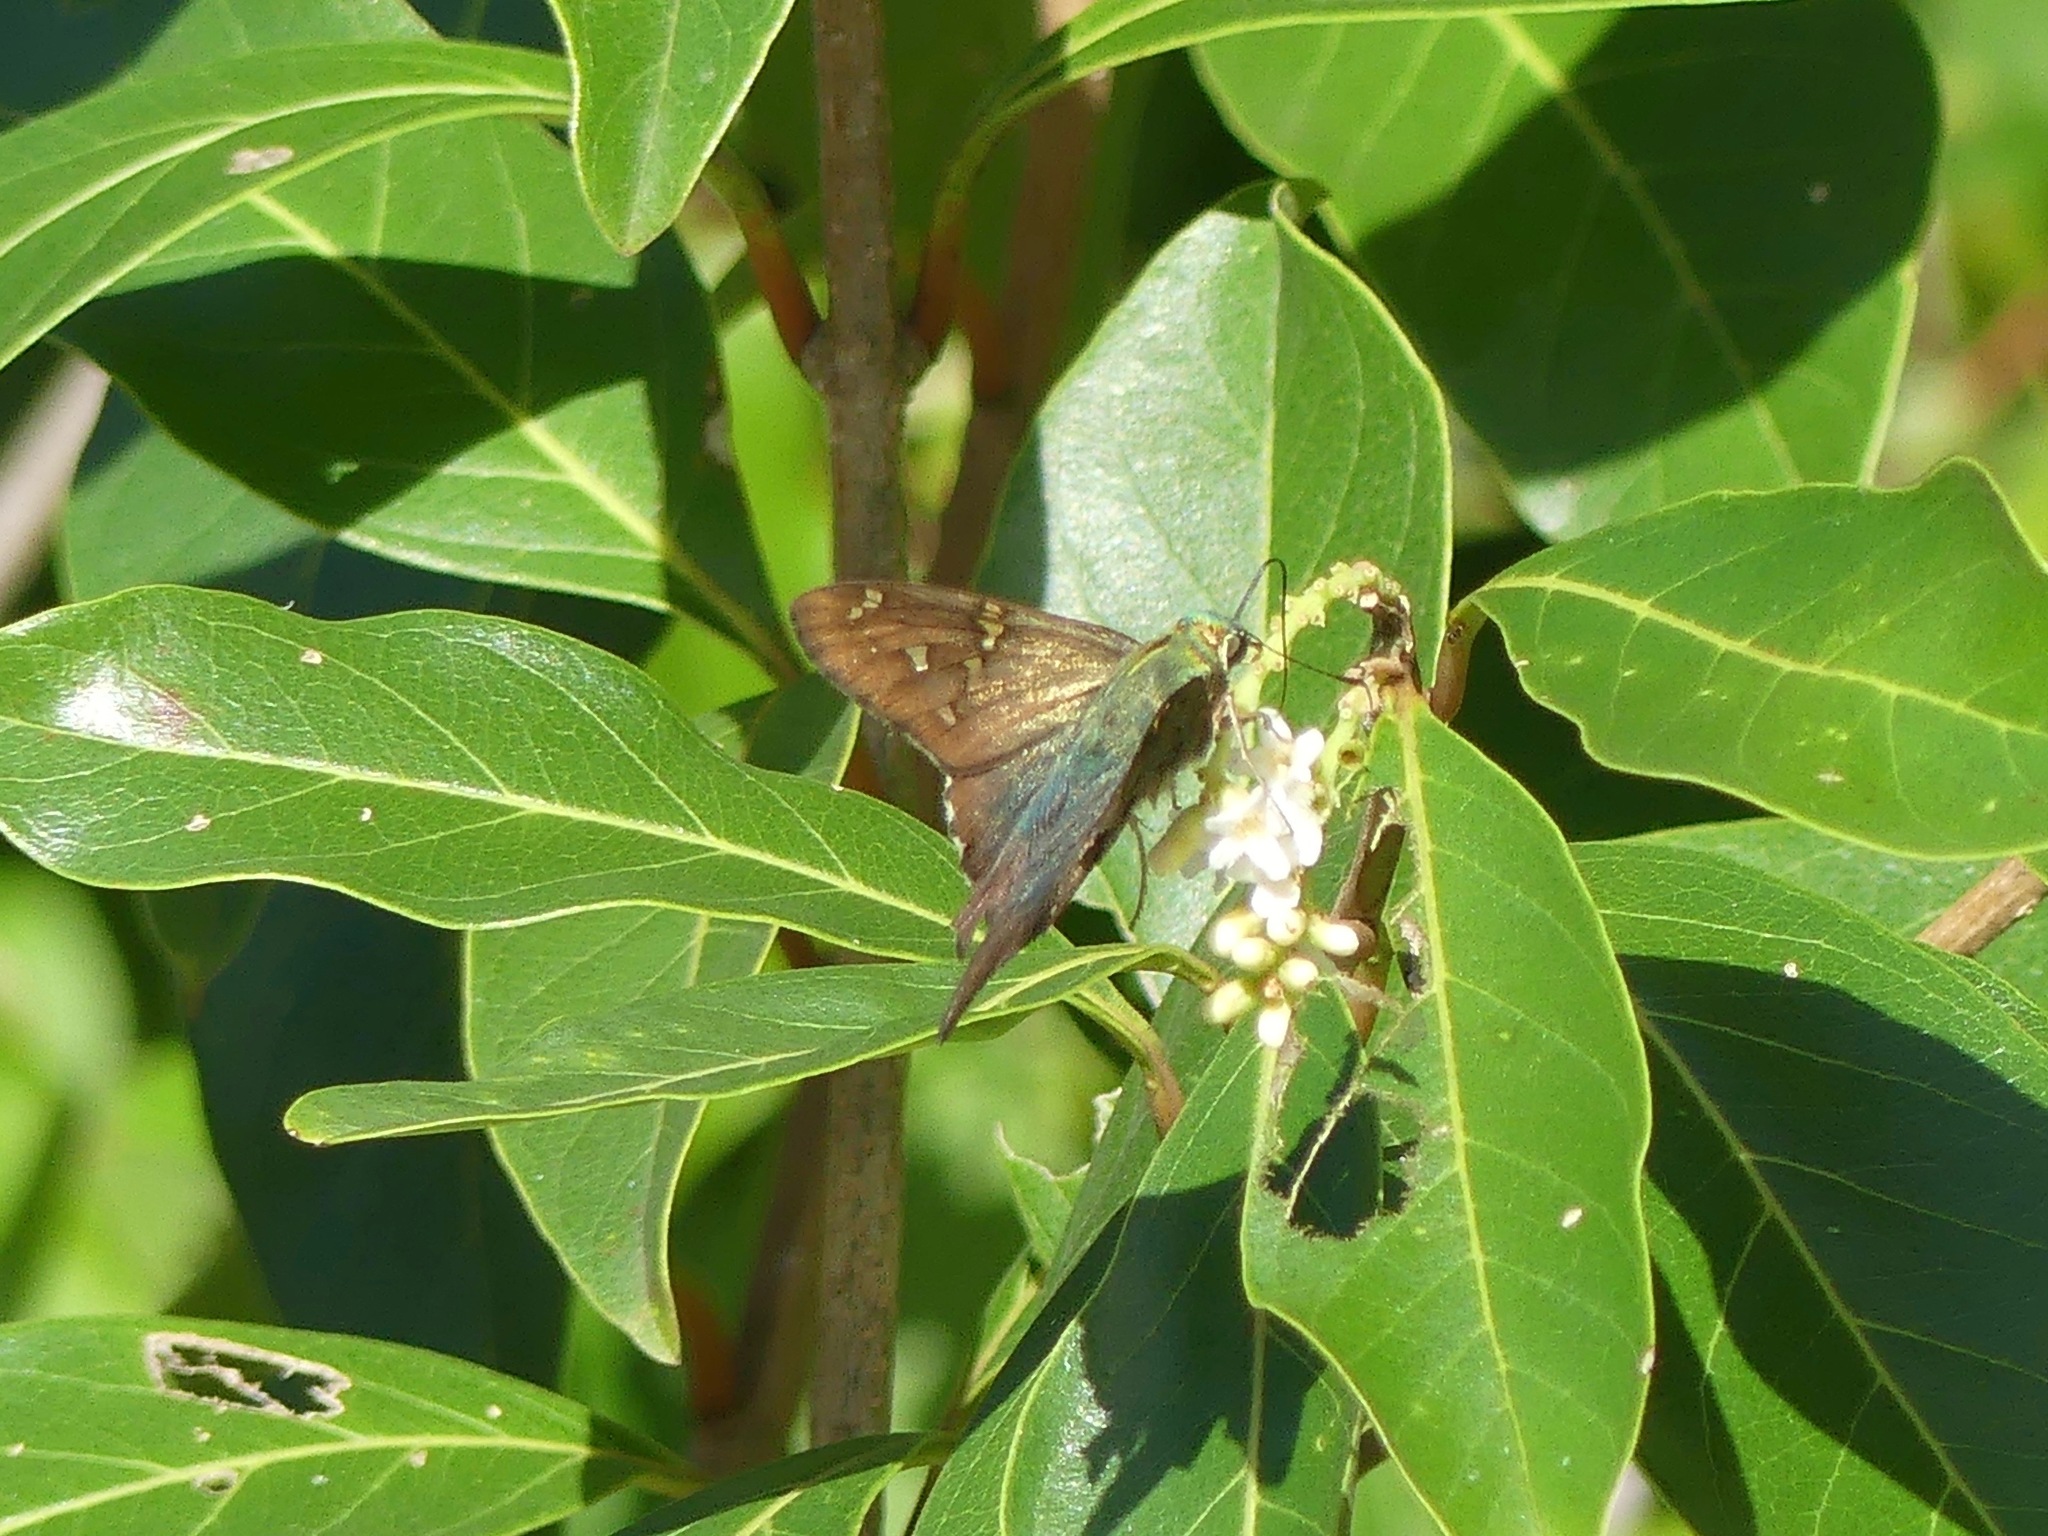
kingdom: Animalia
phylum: Arthropoda
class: Insecta
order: Lepidoptera
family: Hesperiidae
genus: Urbanus
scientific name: Urbanus proteus
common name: Long-tailed skipper
